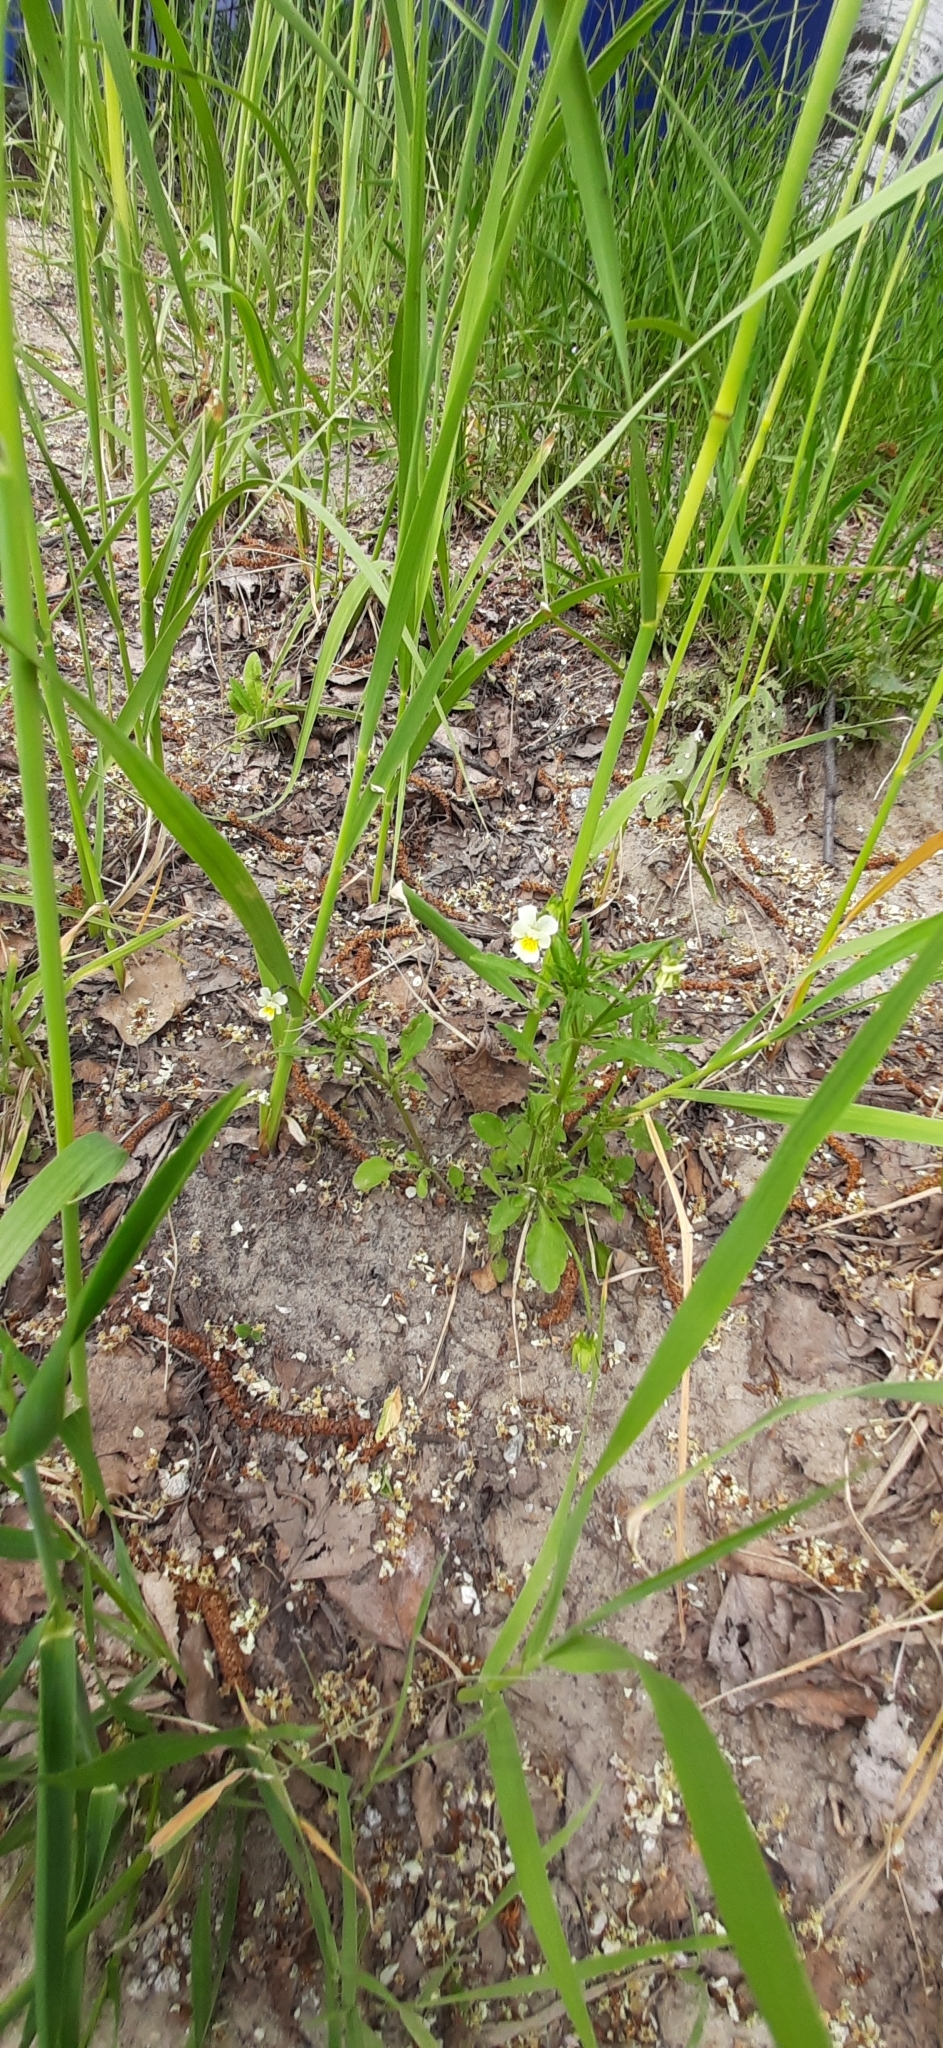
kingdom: Plantae
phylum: Tracheophyta
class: Magnoliopsida
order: Malpighiales
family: Violaceae
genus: Viola
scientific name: Viola arvensis
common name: Field pansy
